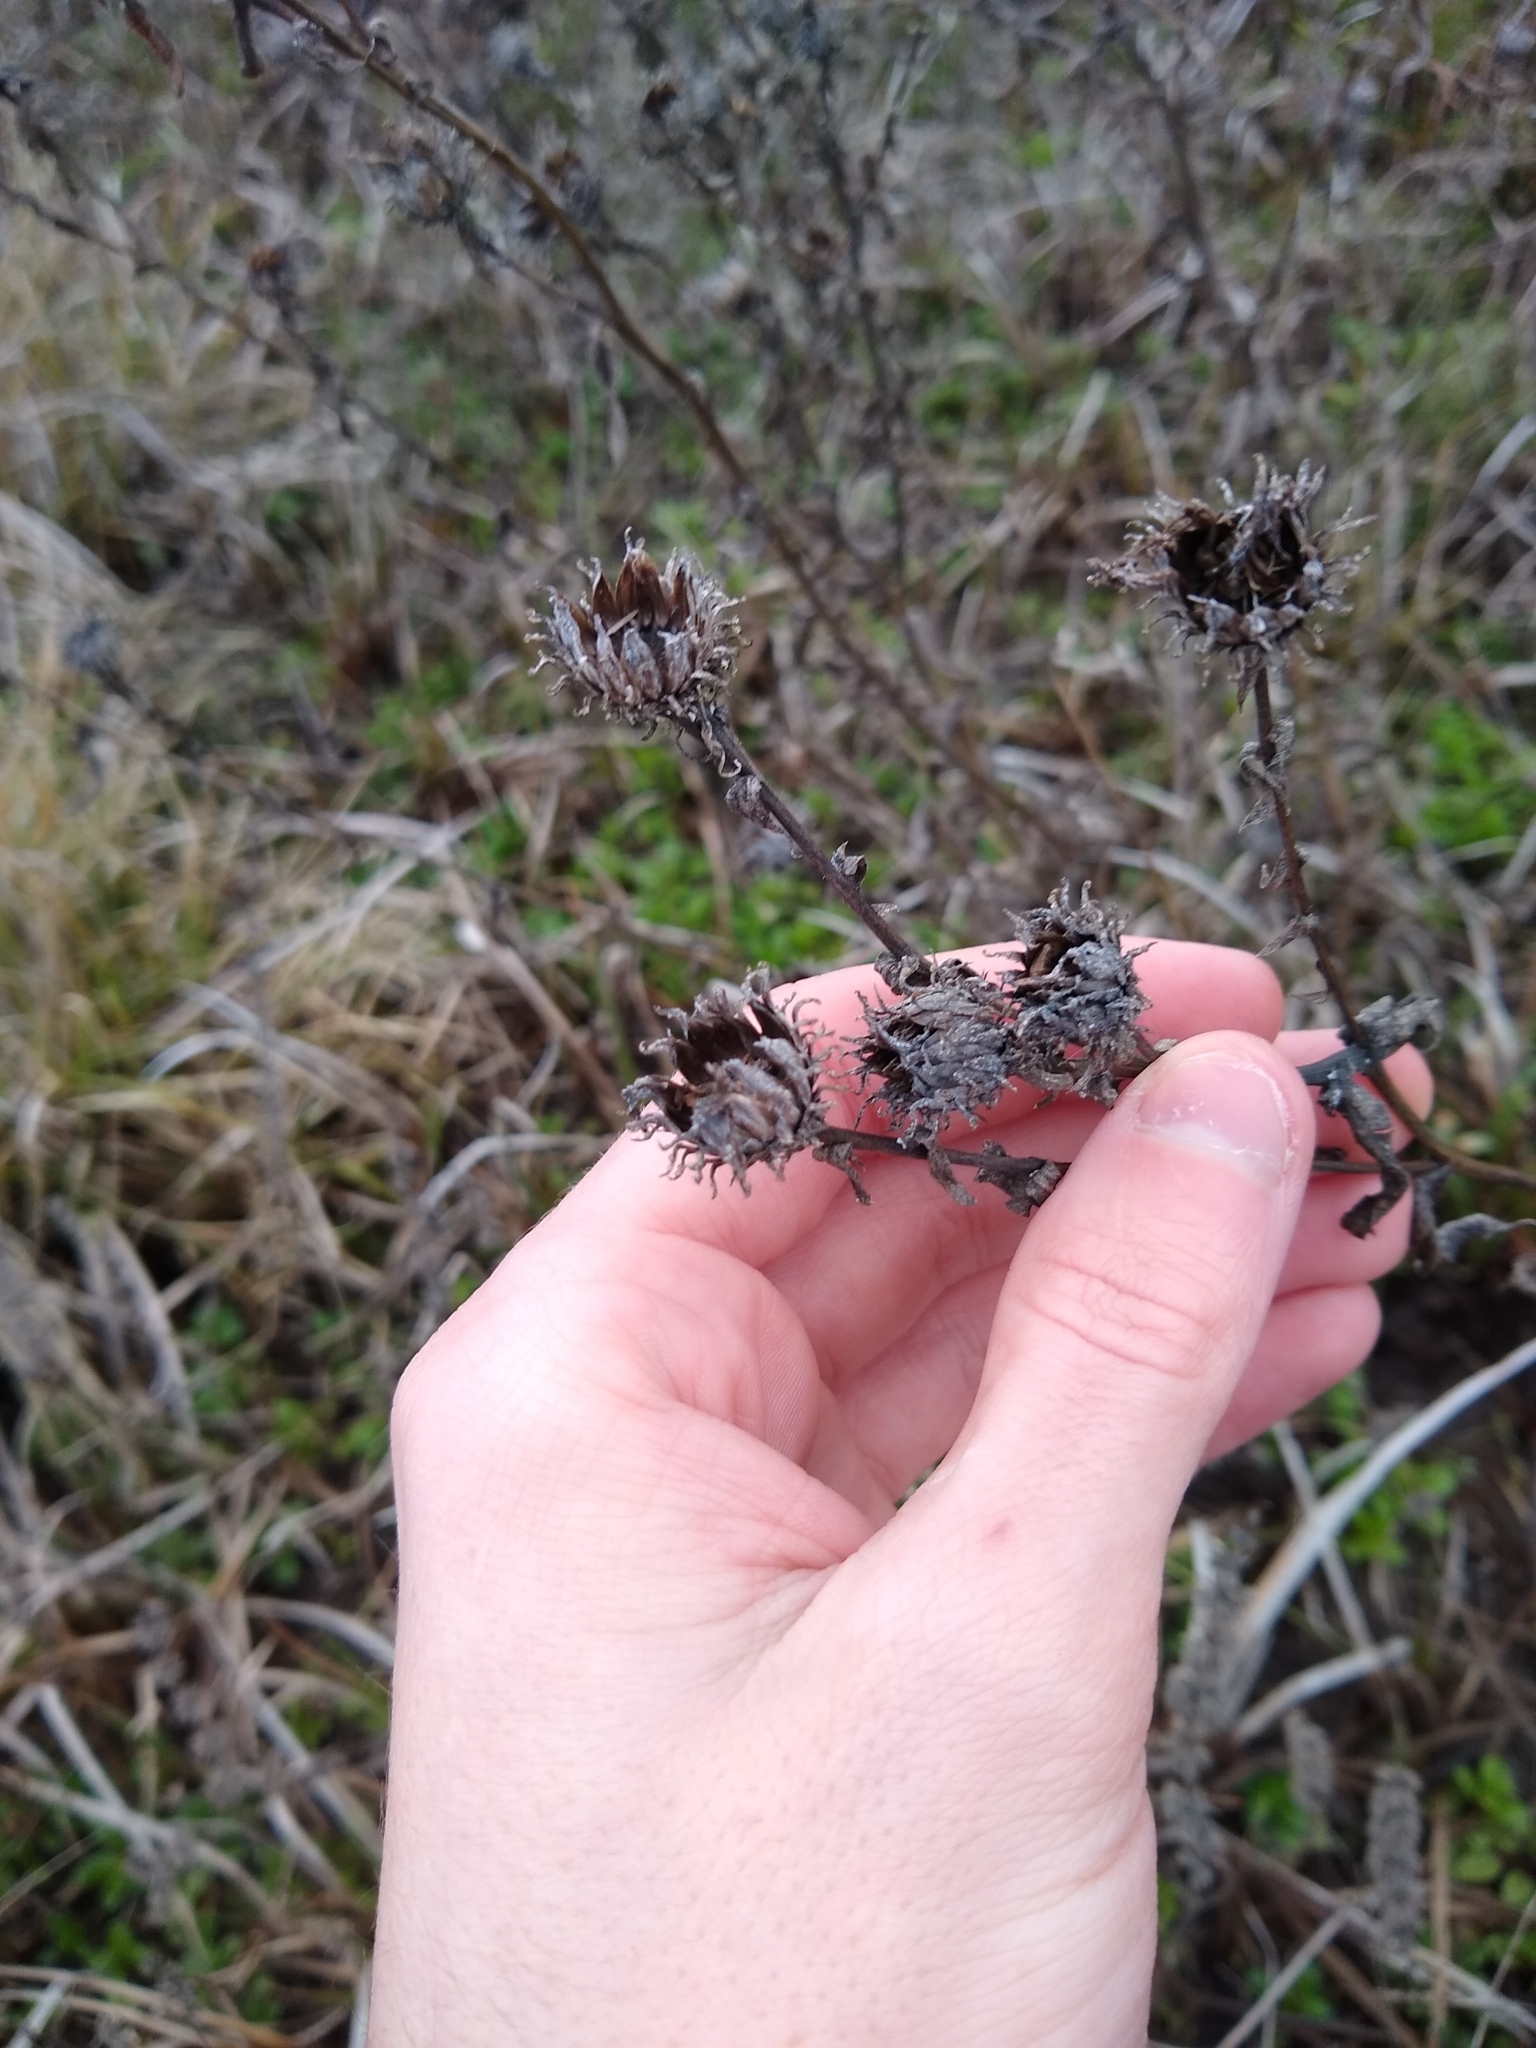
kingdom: Plantae
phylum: Tracheophyta
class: Magnoliopsida
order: Asterales
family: Asteraceae
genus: Grindelia
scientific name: Grindelia integrifolia
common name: Puget sound gumweed
